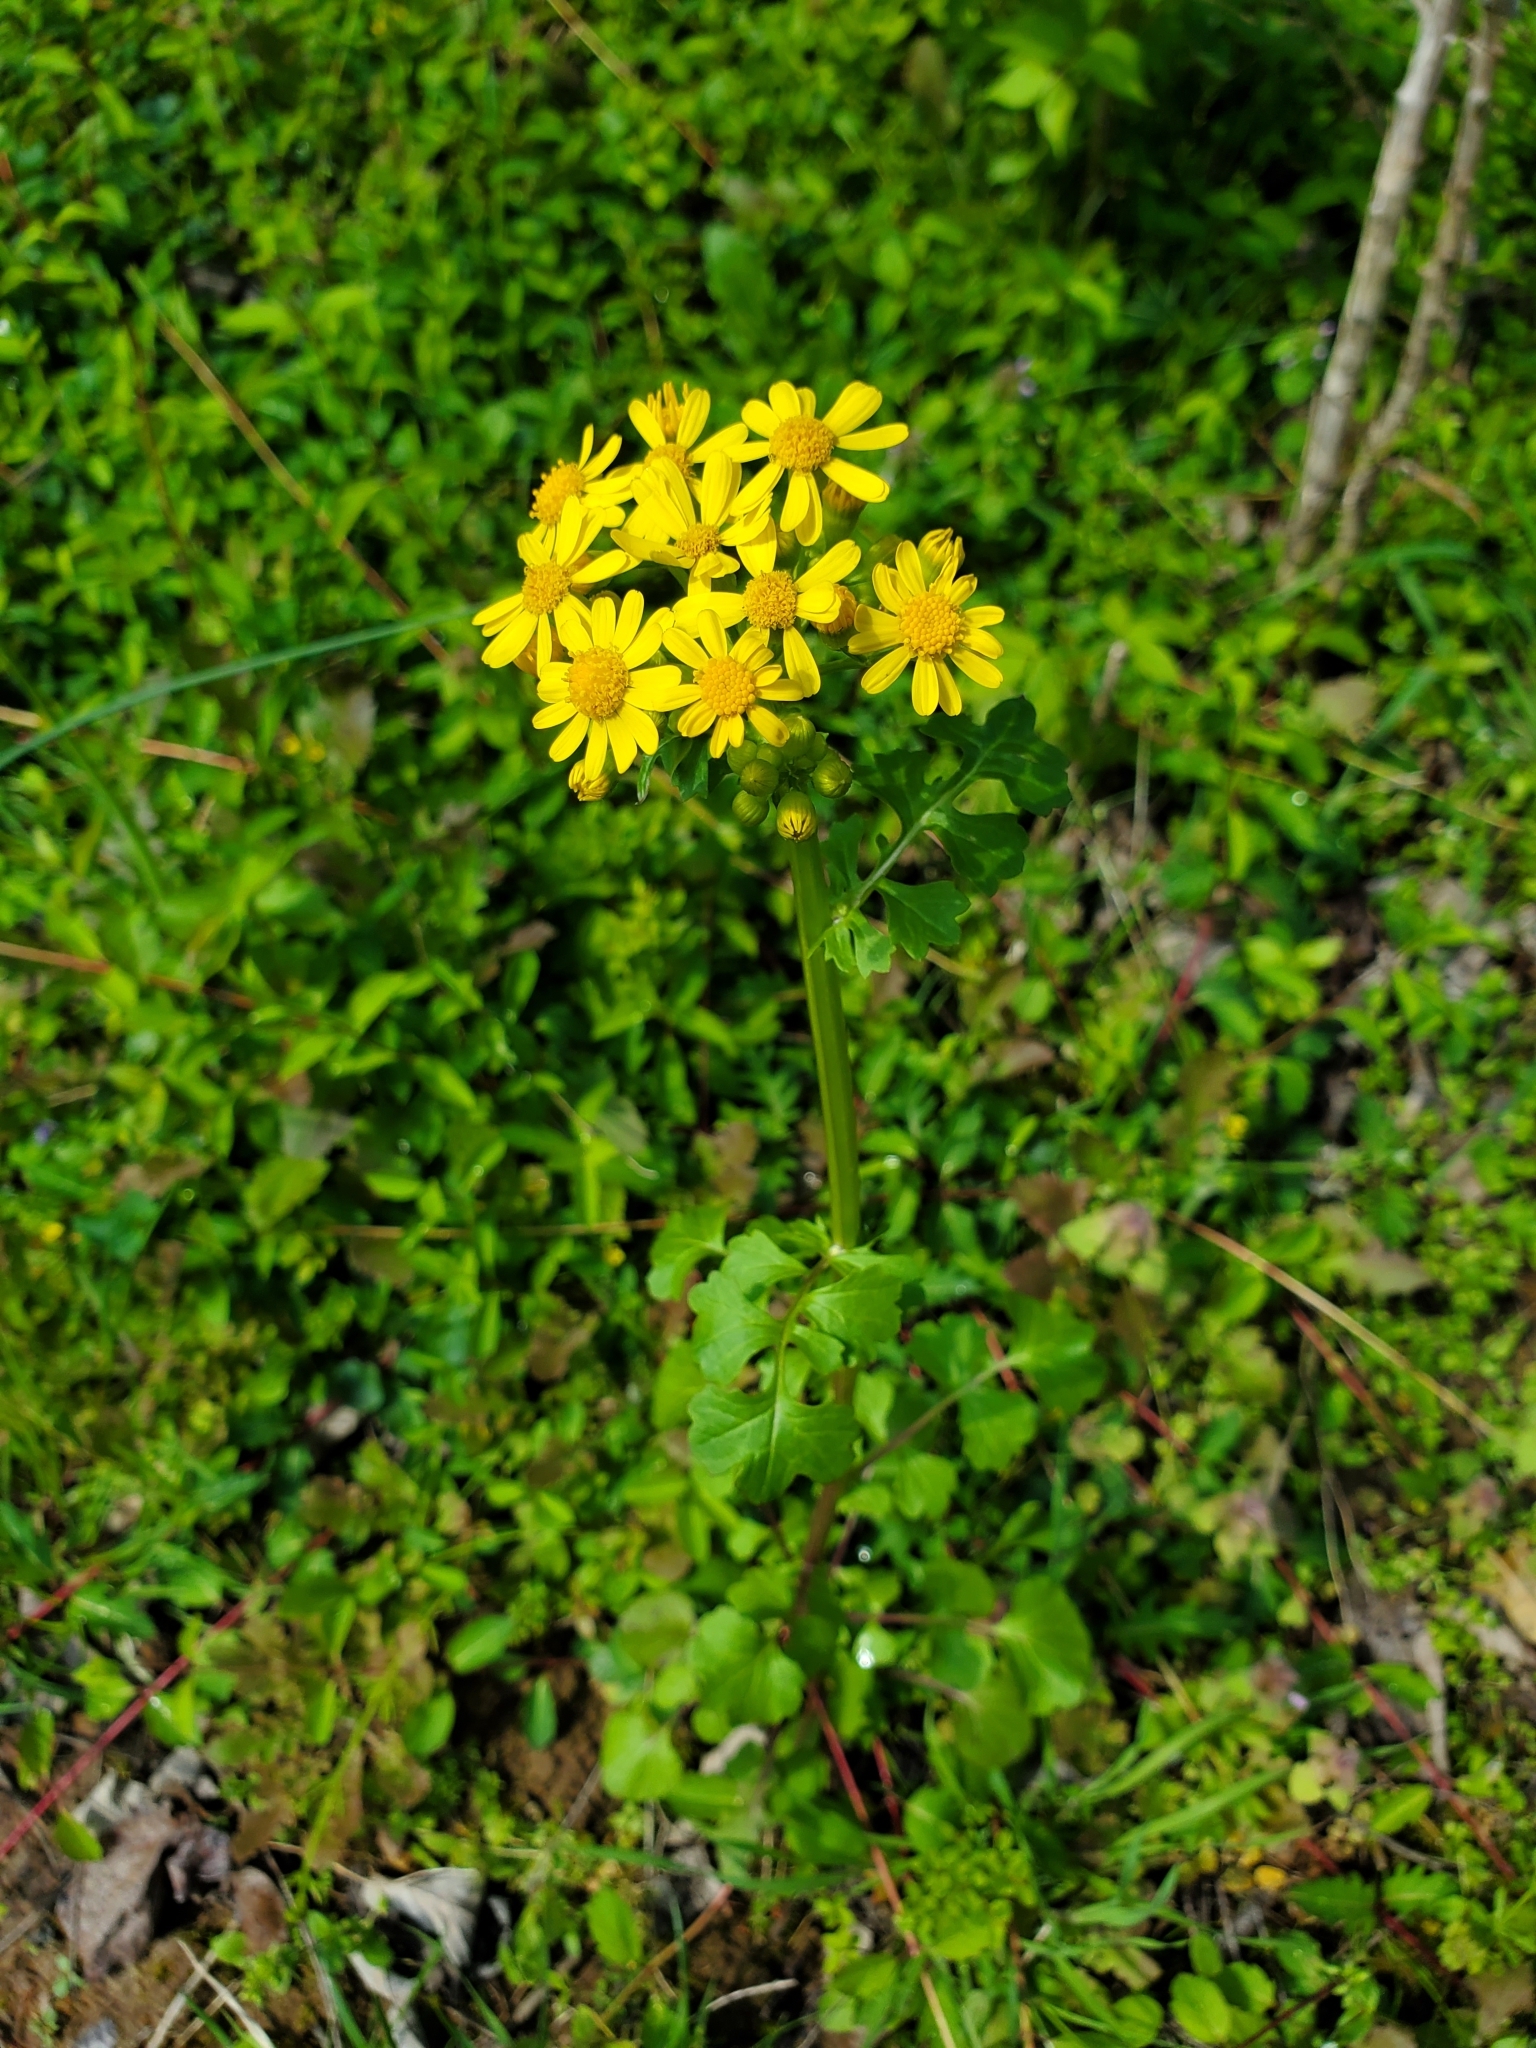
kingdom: Plantae
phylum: Tracheophyta
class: Magnoliopsida
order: Asterales
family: Asteraceae
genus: Packera
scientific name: Packera glabella
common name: Butterweed
